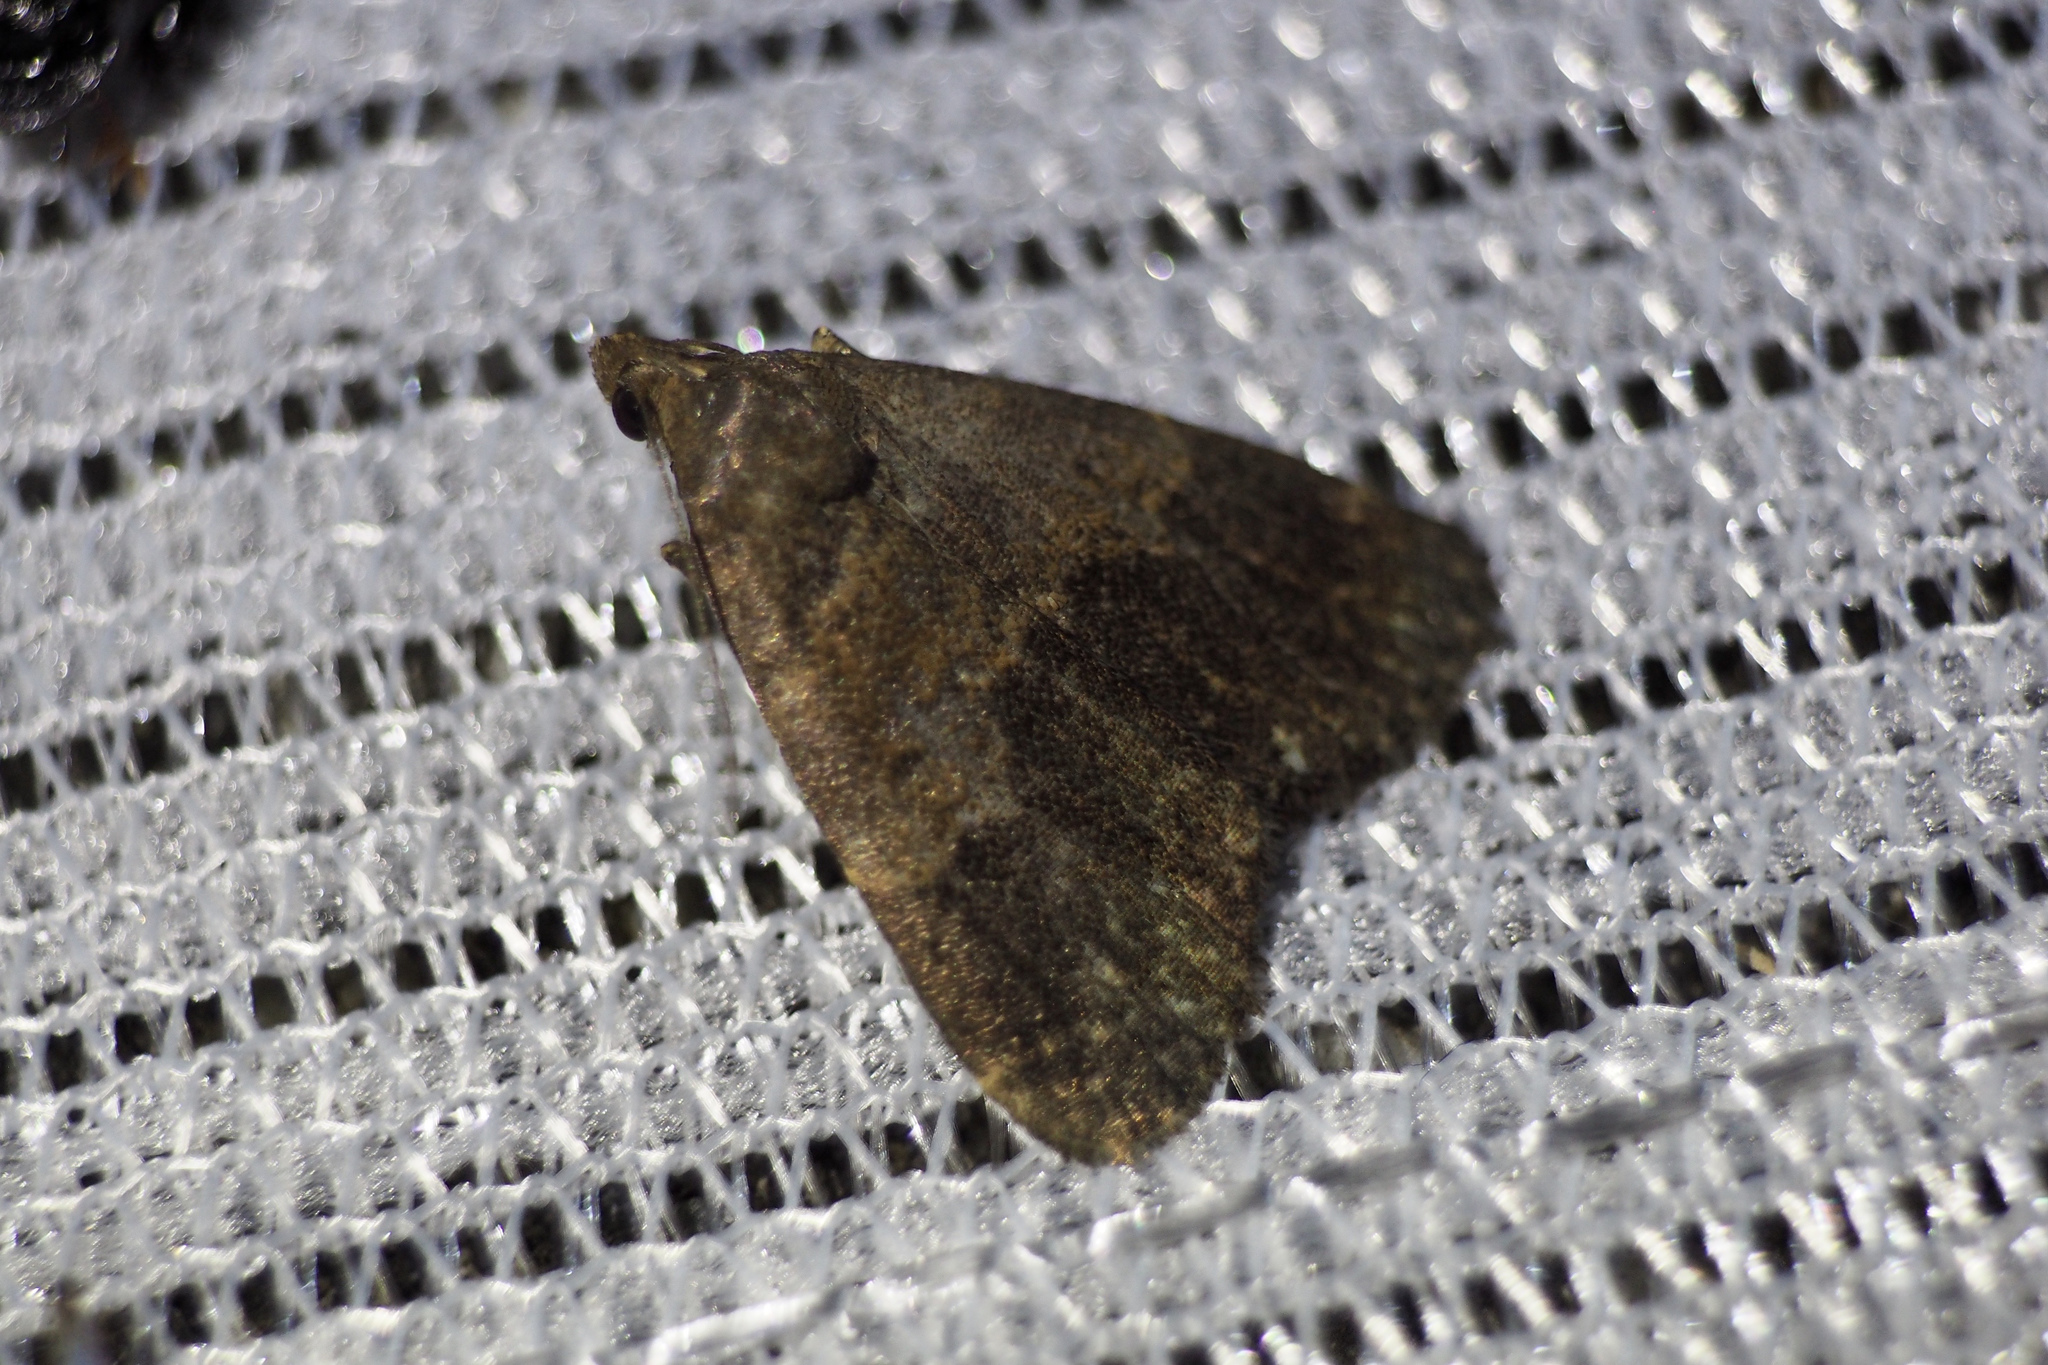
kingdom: Animalia
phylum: Arthropoda
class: Insecta
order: Lepidoptera
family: Erebidae
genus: Hydrillodes
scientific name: Hydrillodes lentalis
